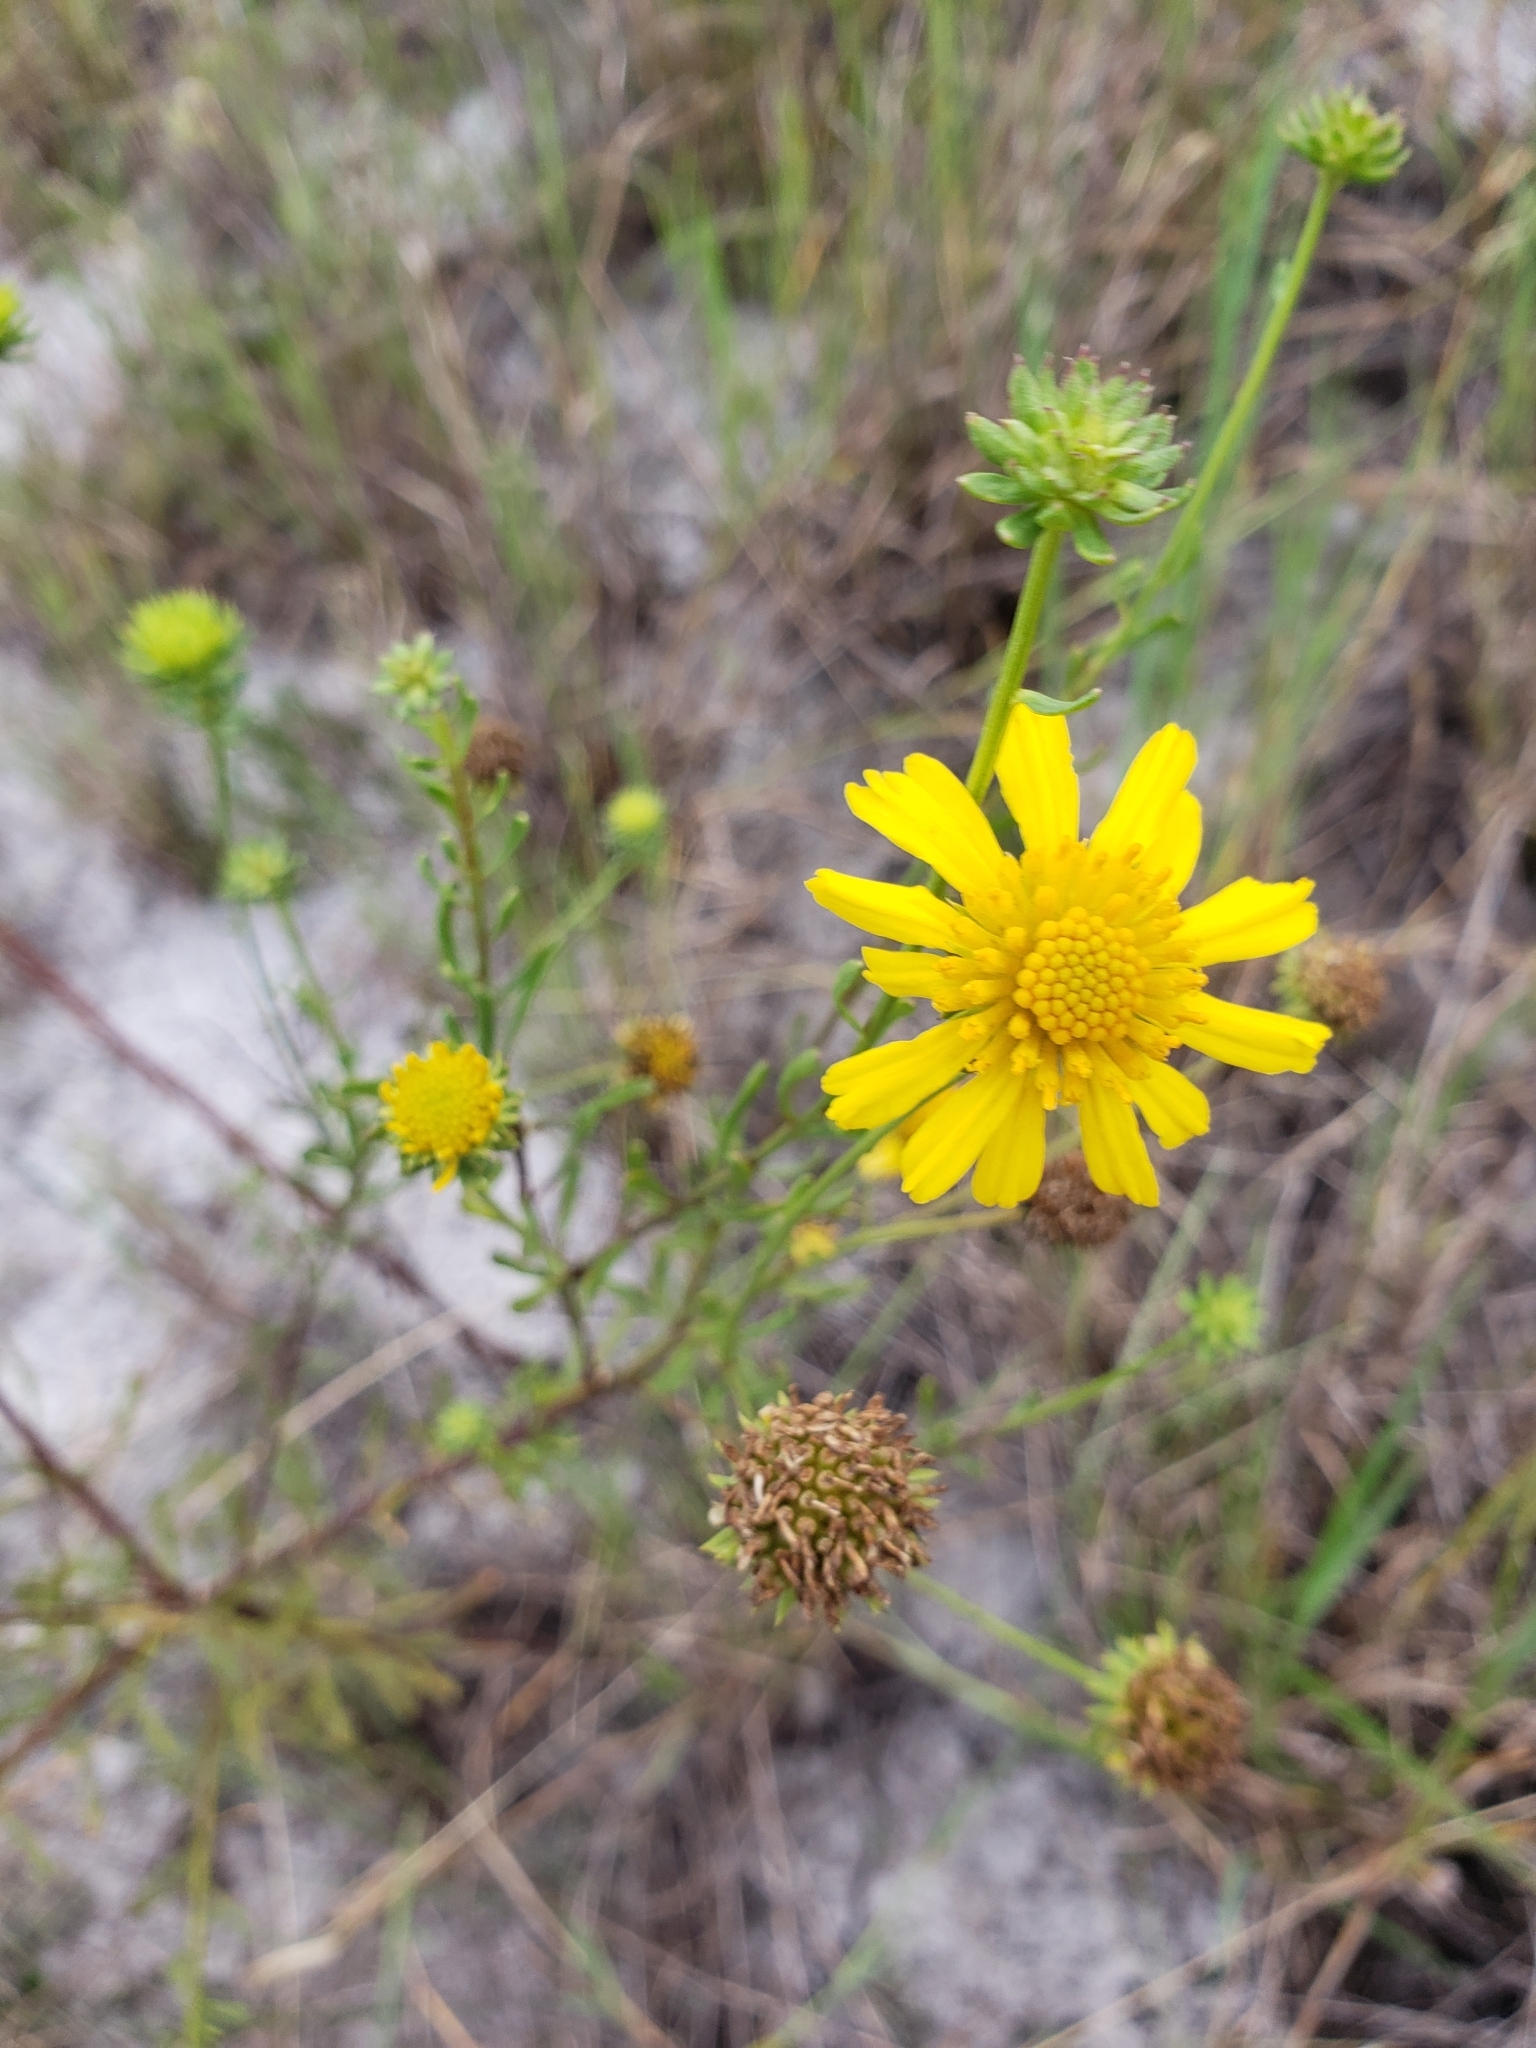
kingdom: Plantae
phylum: Tracheophyta
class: Magnoliopsida
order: Asterales
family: Asteraceae
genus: Balduina
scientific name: Balduina angustifolia
